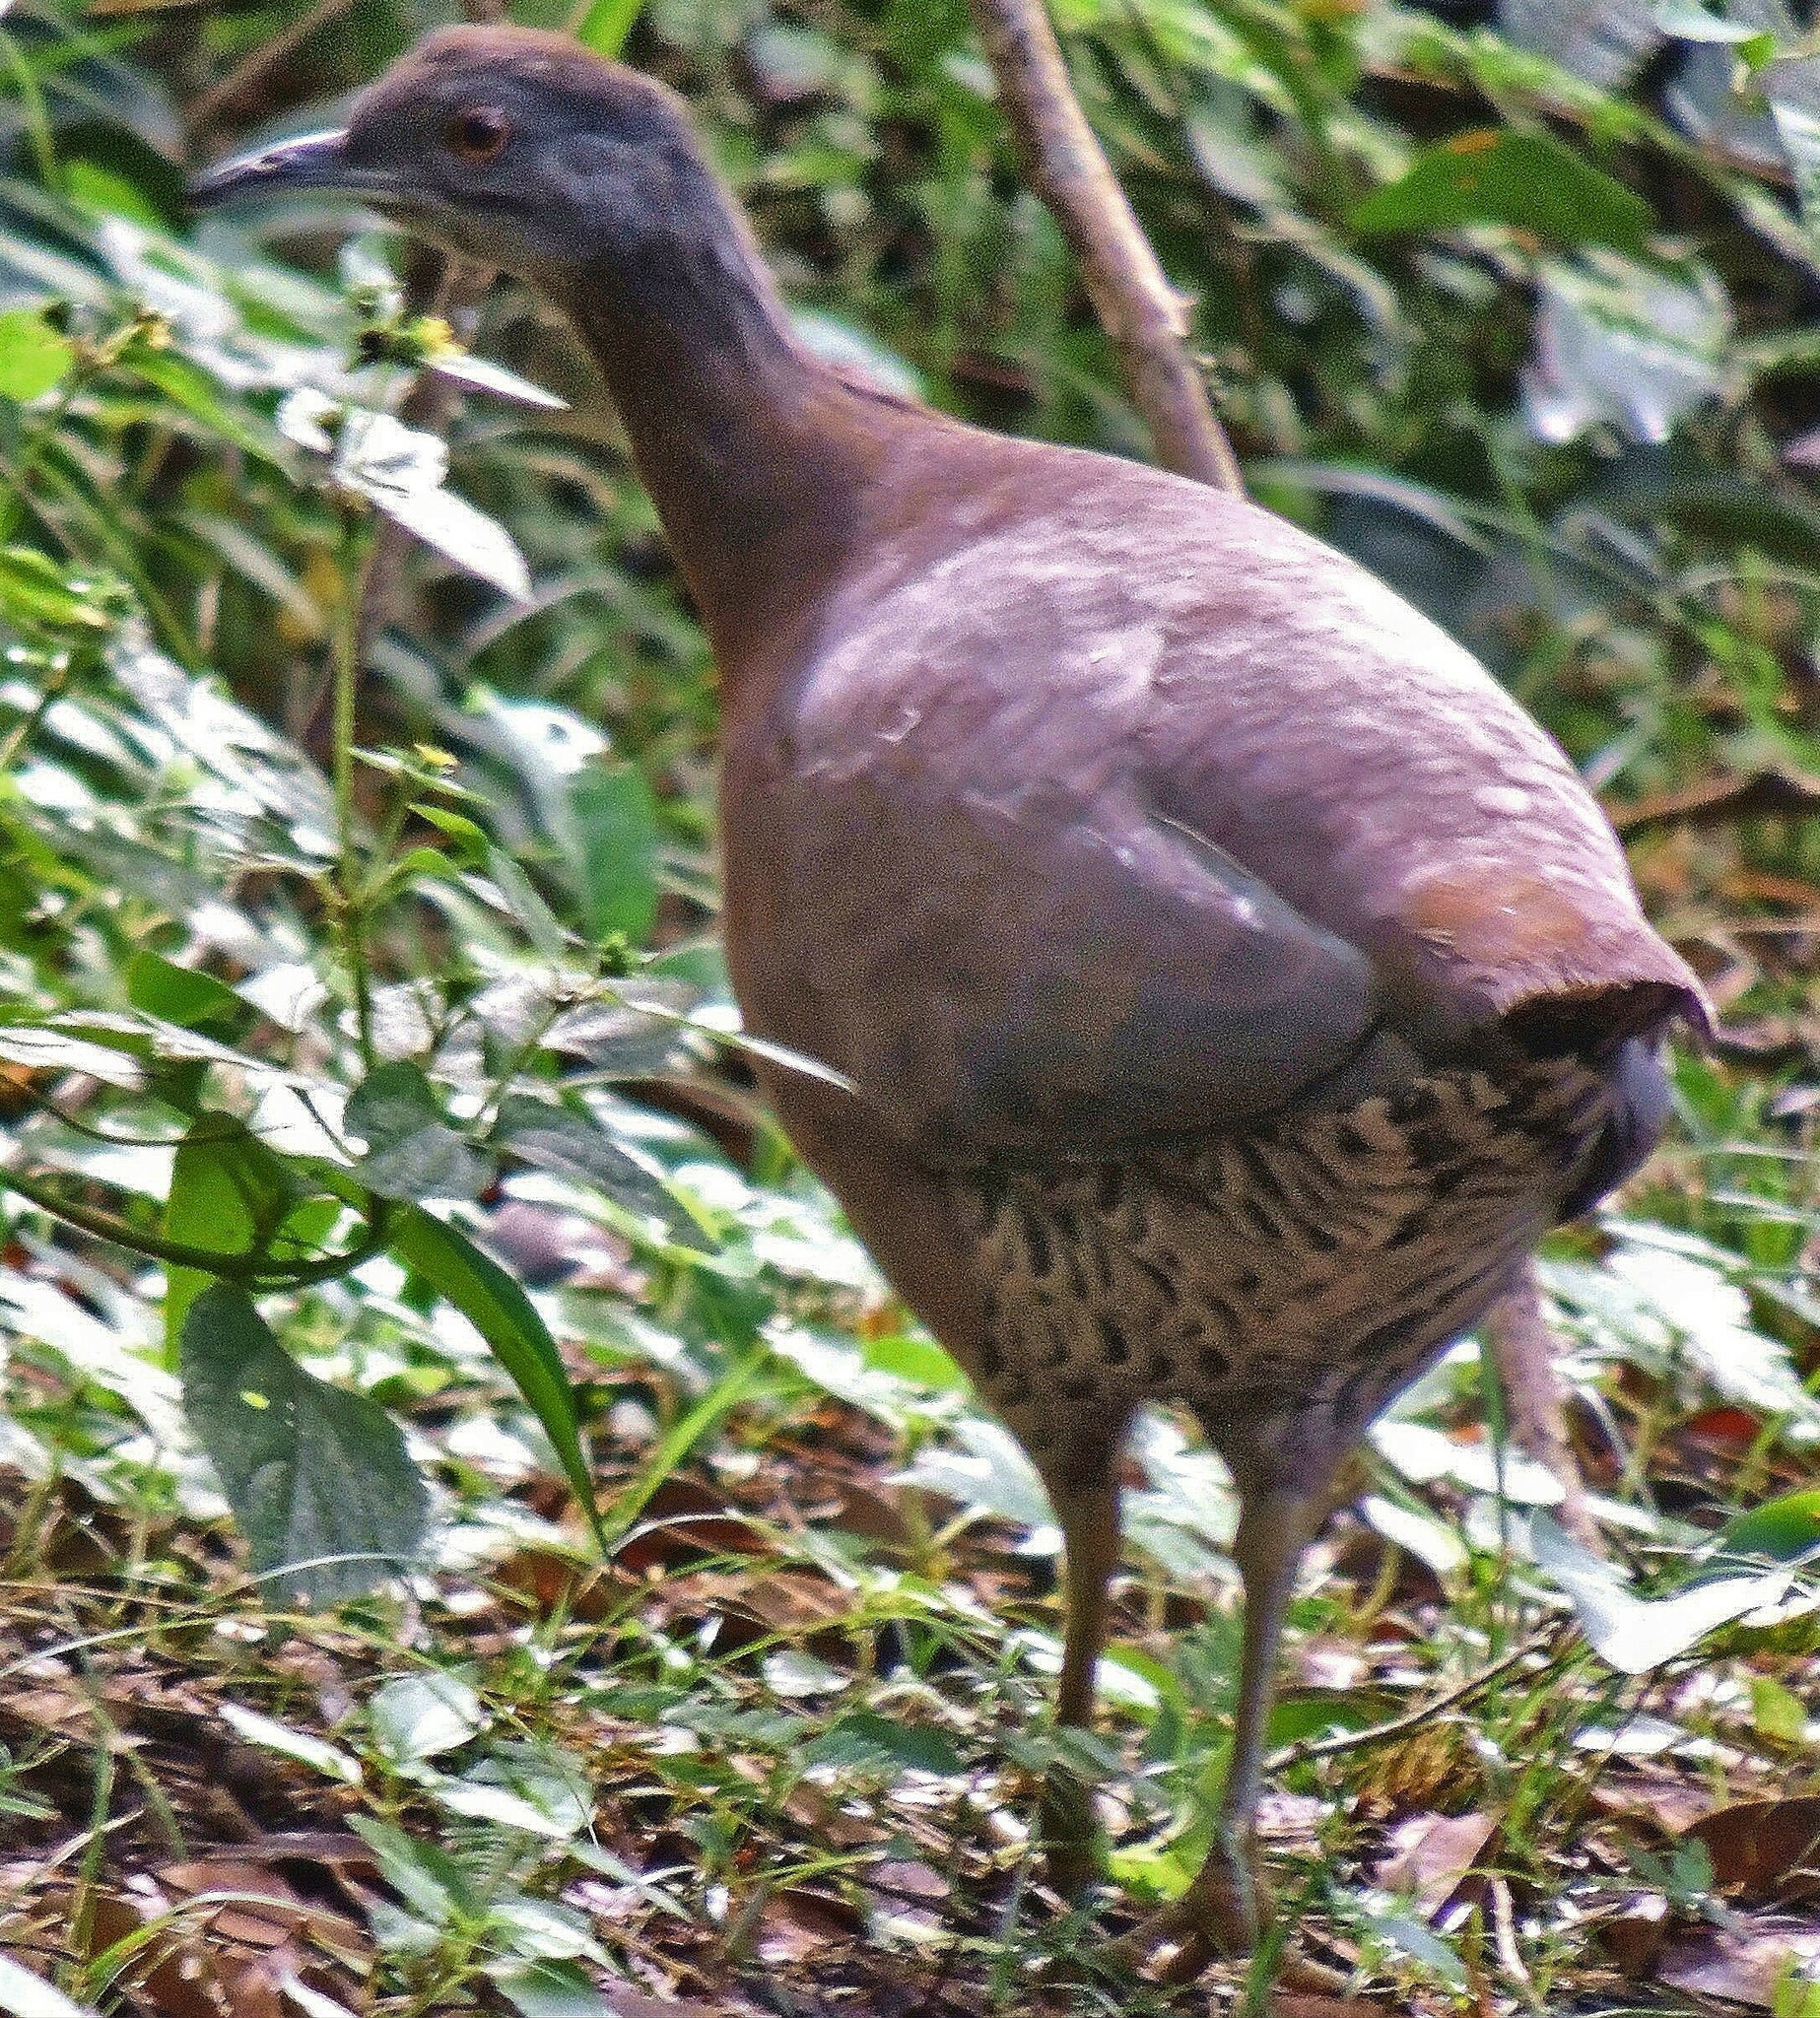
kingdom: Animalia
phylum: Chordata
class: Aves
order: Tinamiformes
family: Tinamidae
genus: Crypturellus
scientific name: Crypturellus obsoletus
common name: Brown tinamou
